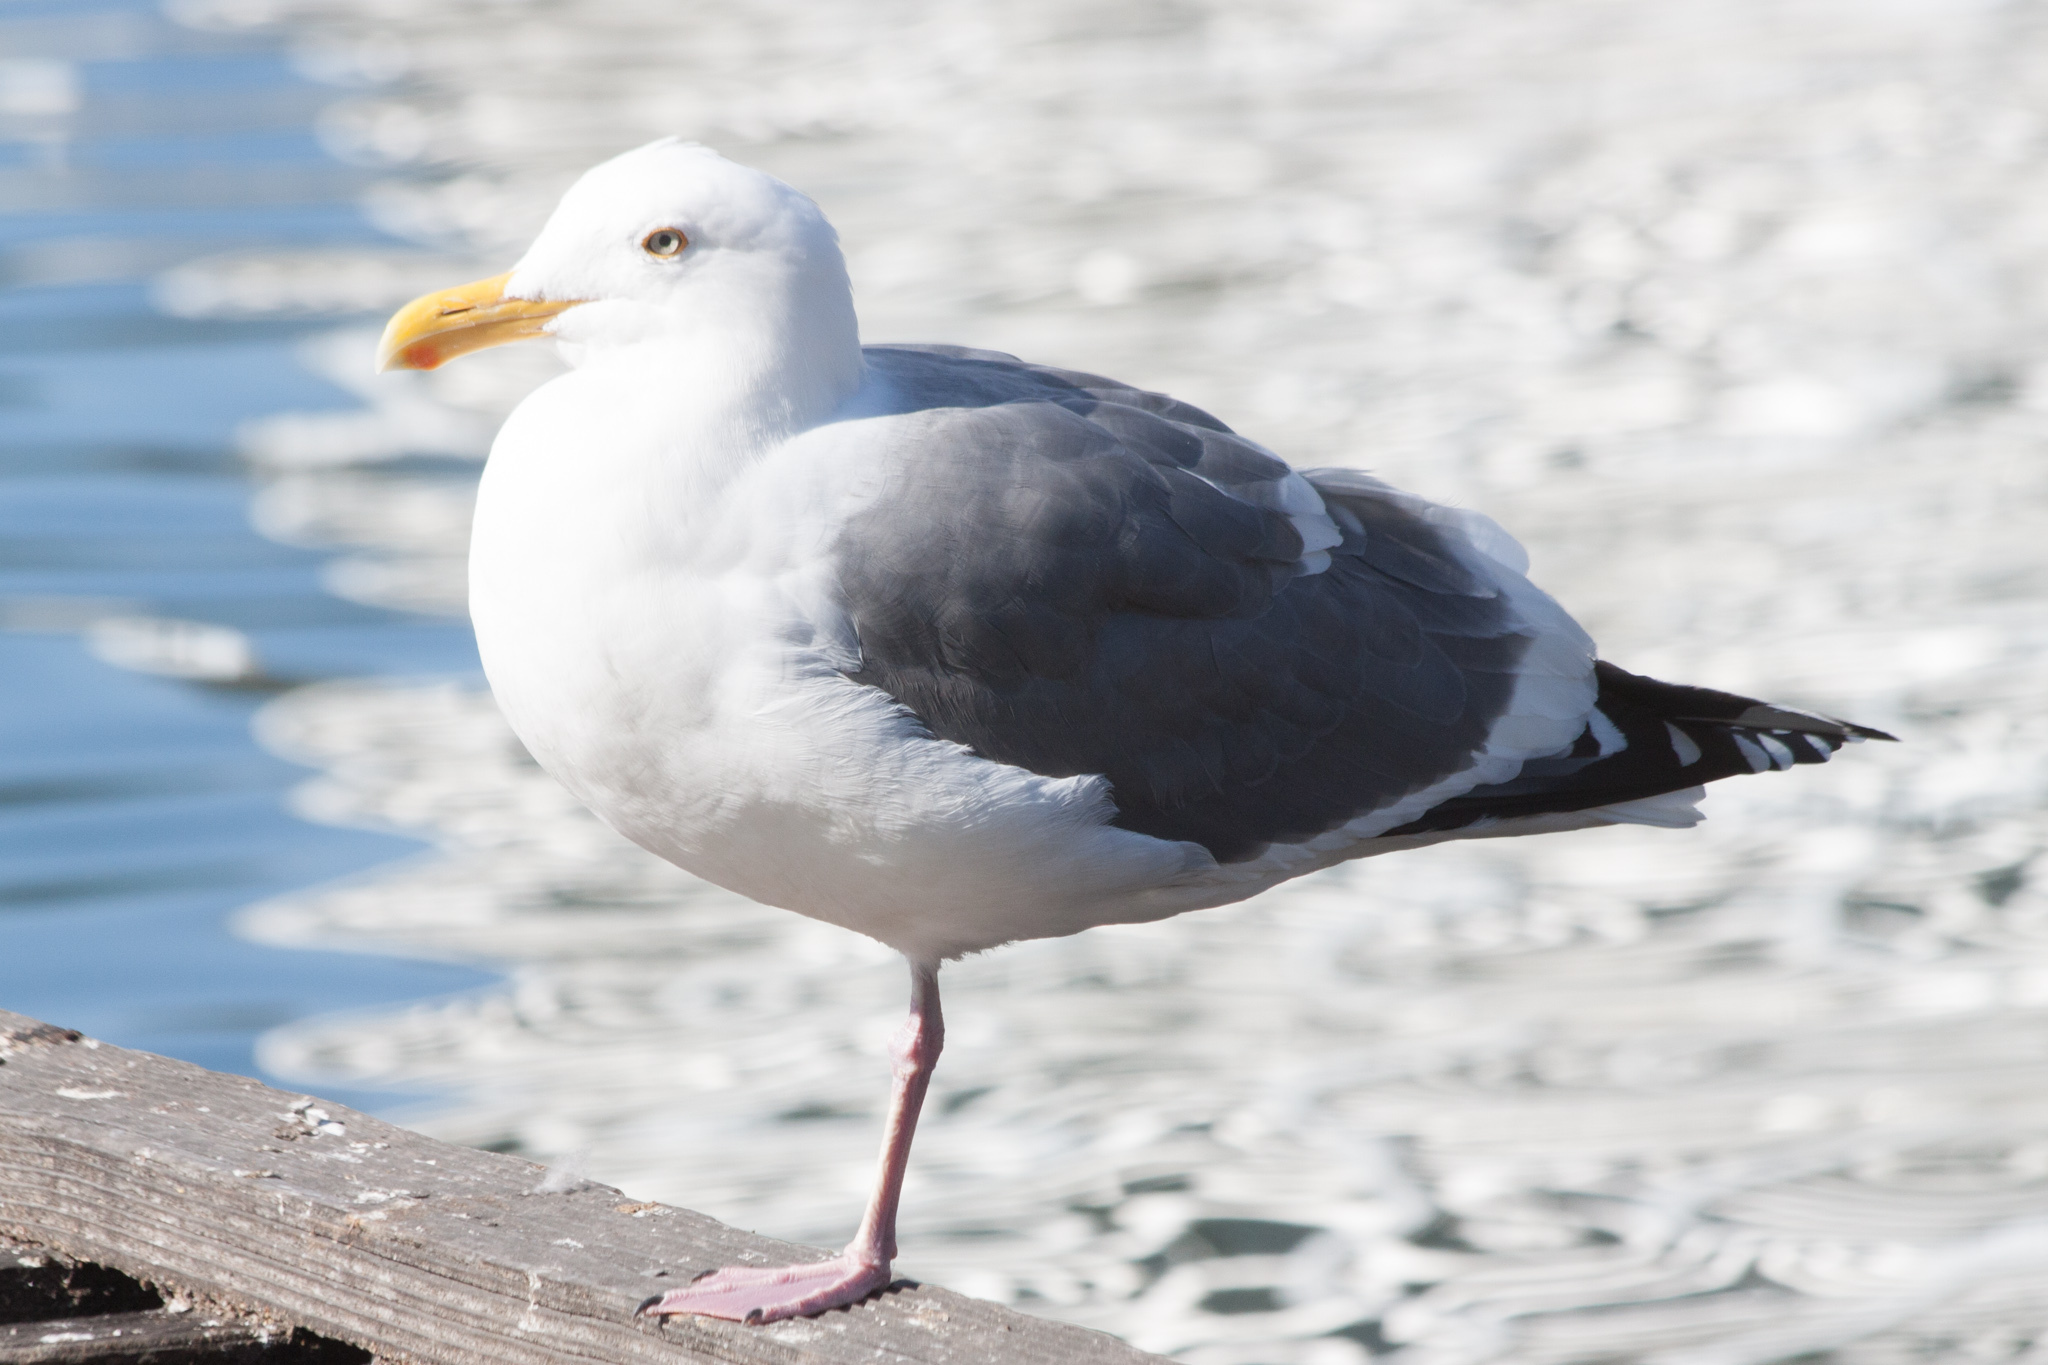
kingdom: Animalia
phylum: Chordata
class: Aves
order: Charadriiformes
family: Laridae
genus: Larus
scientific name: Larus occidentalis
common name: Western gull
